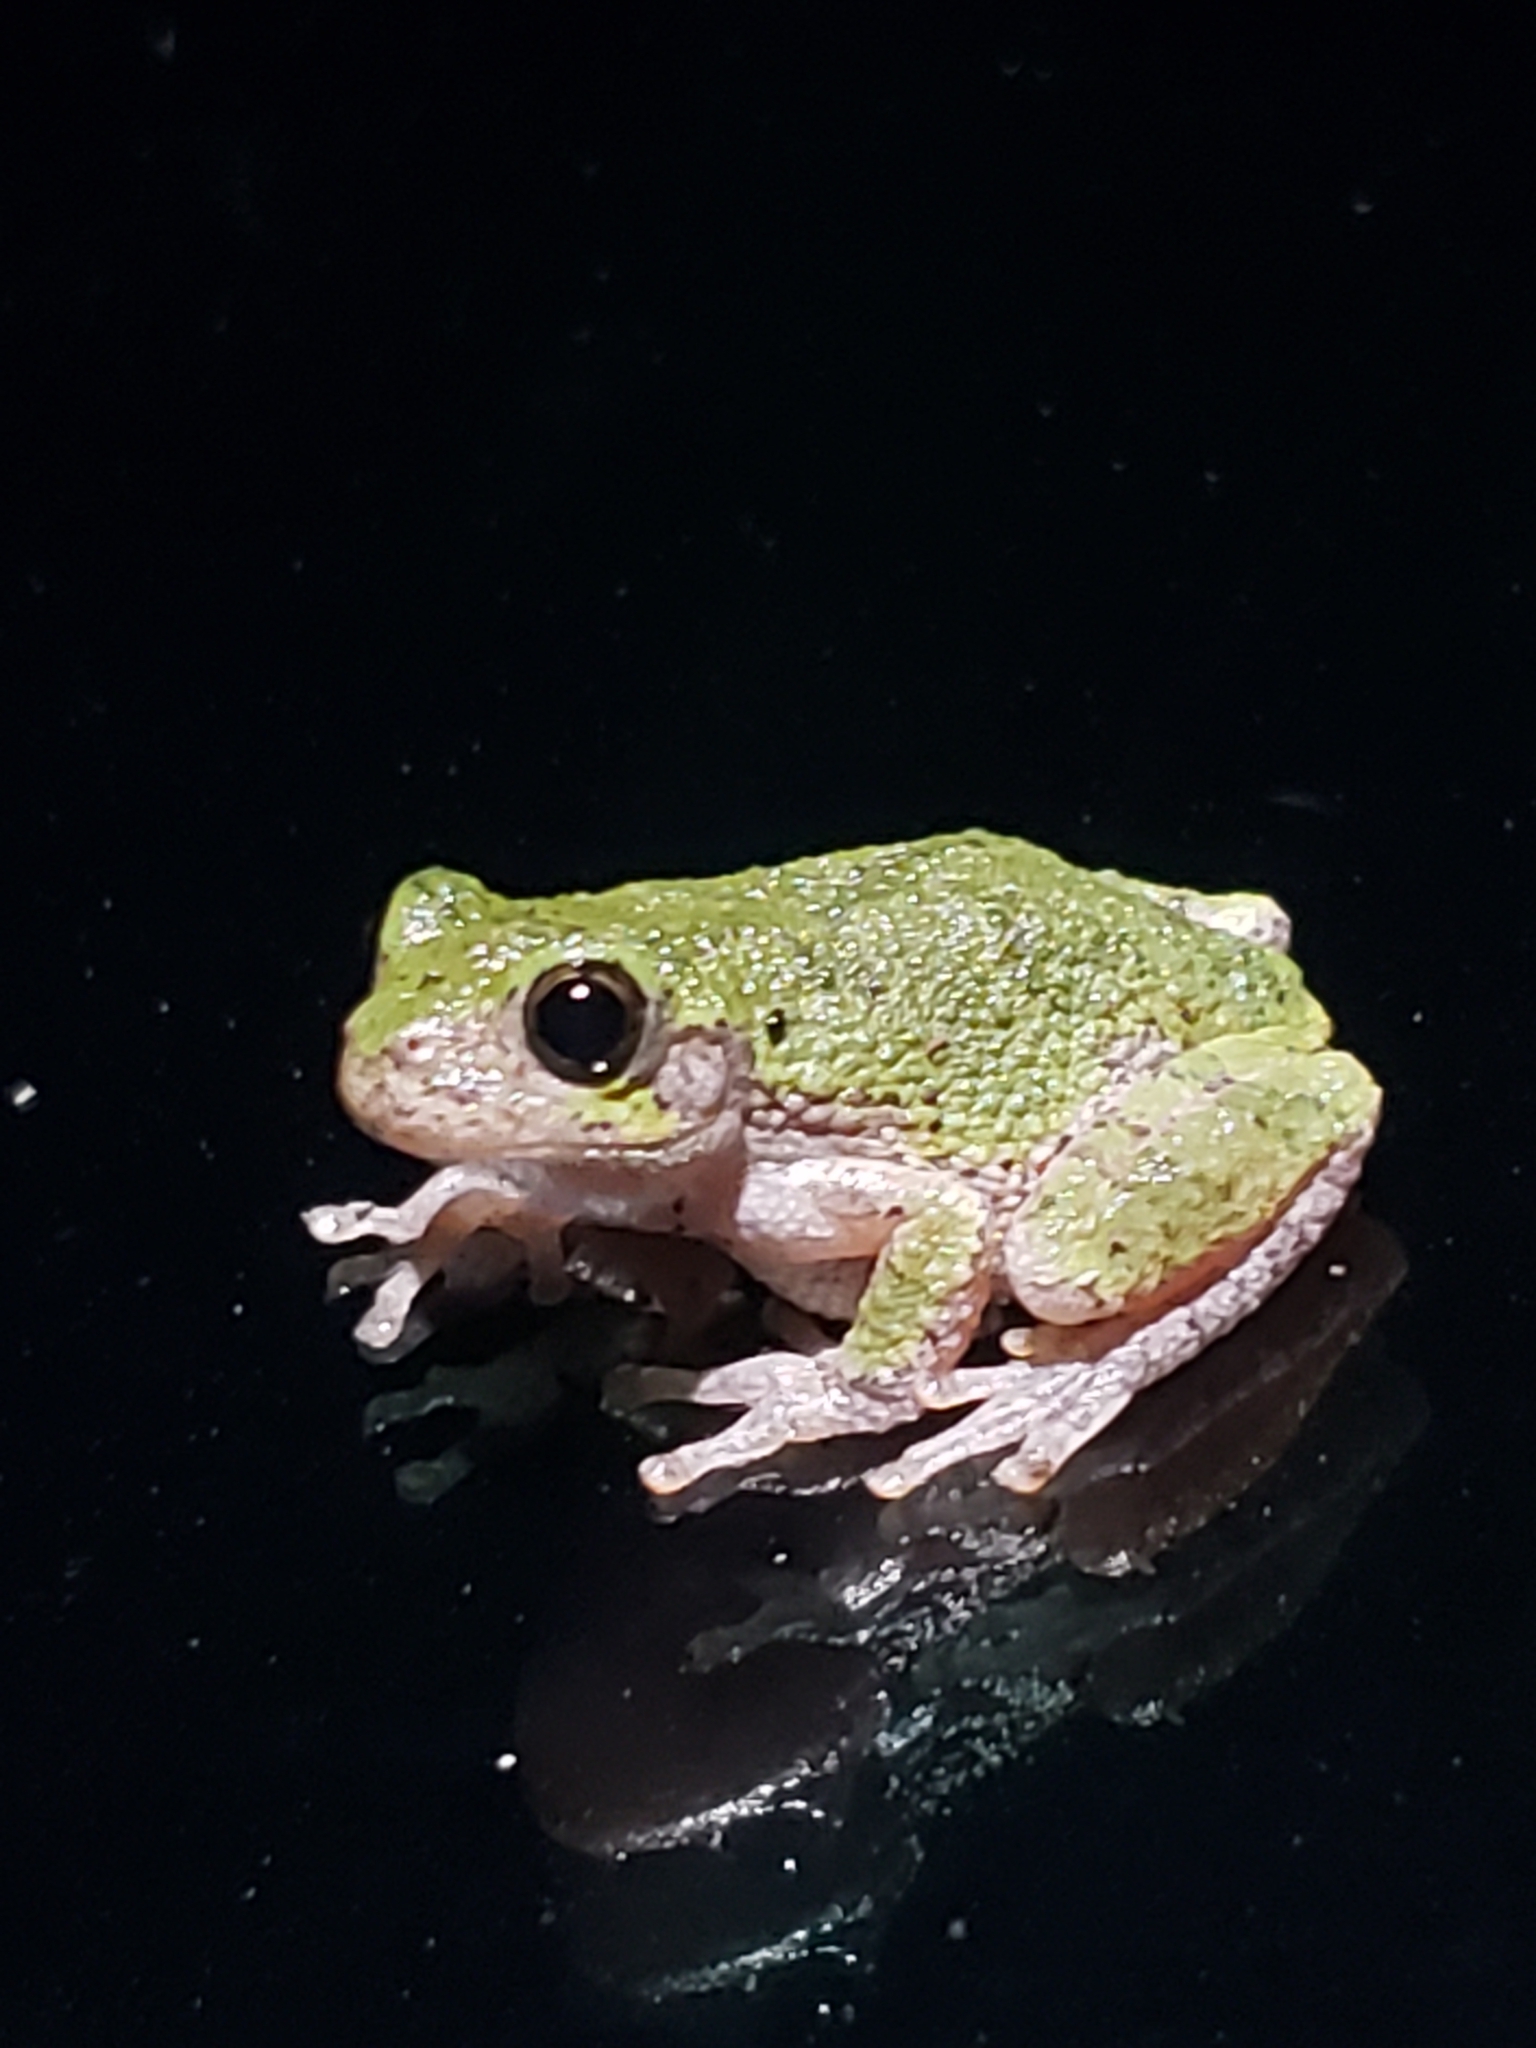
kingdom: Animalia
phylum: Chordata
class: Amphibia
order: Anura
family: Hylidae
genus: Dryophytes
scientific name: Dryophytes versicolor
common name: Gray treefrog
